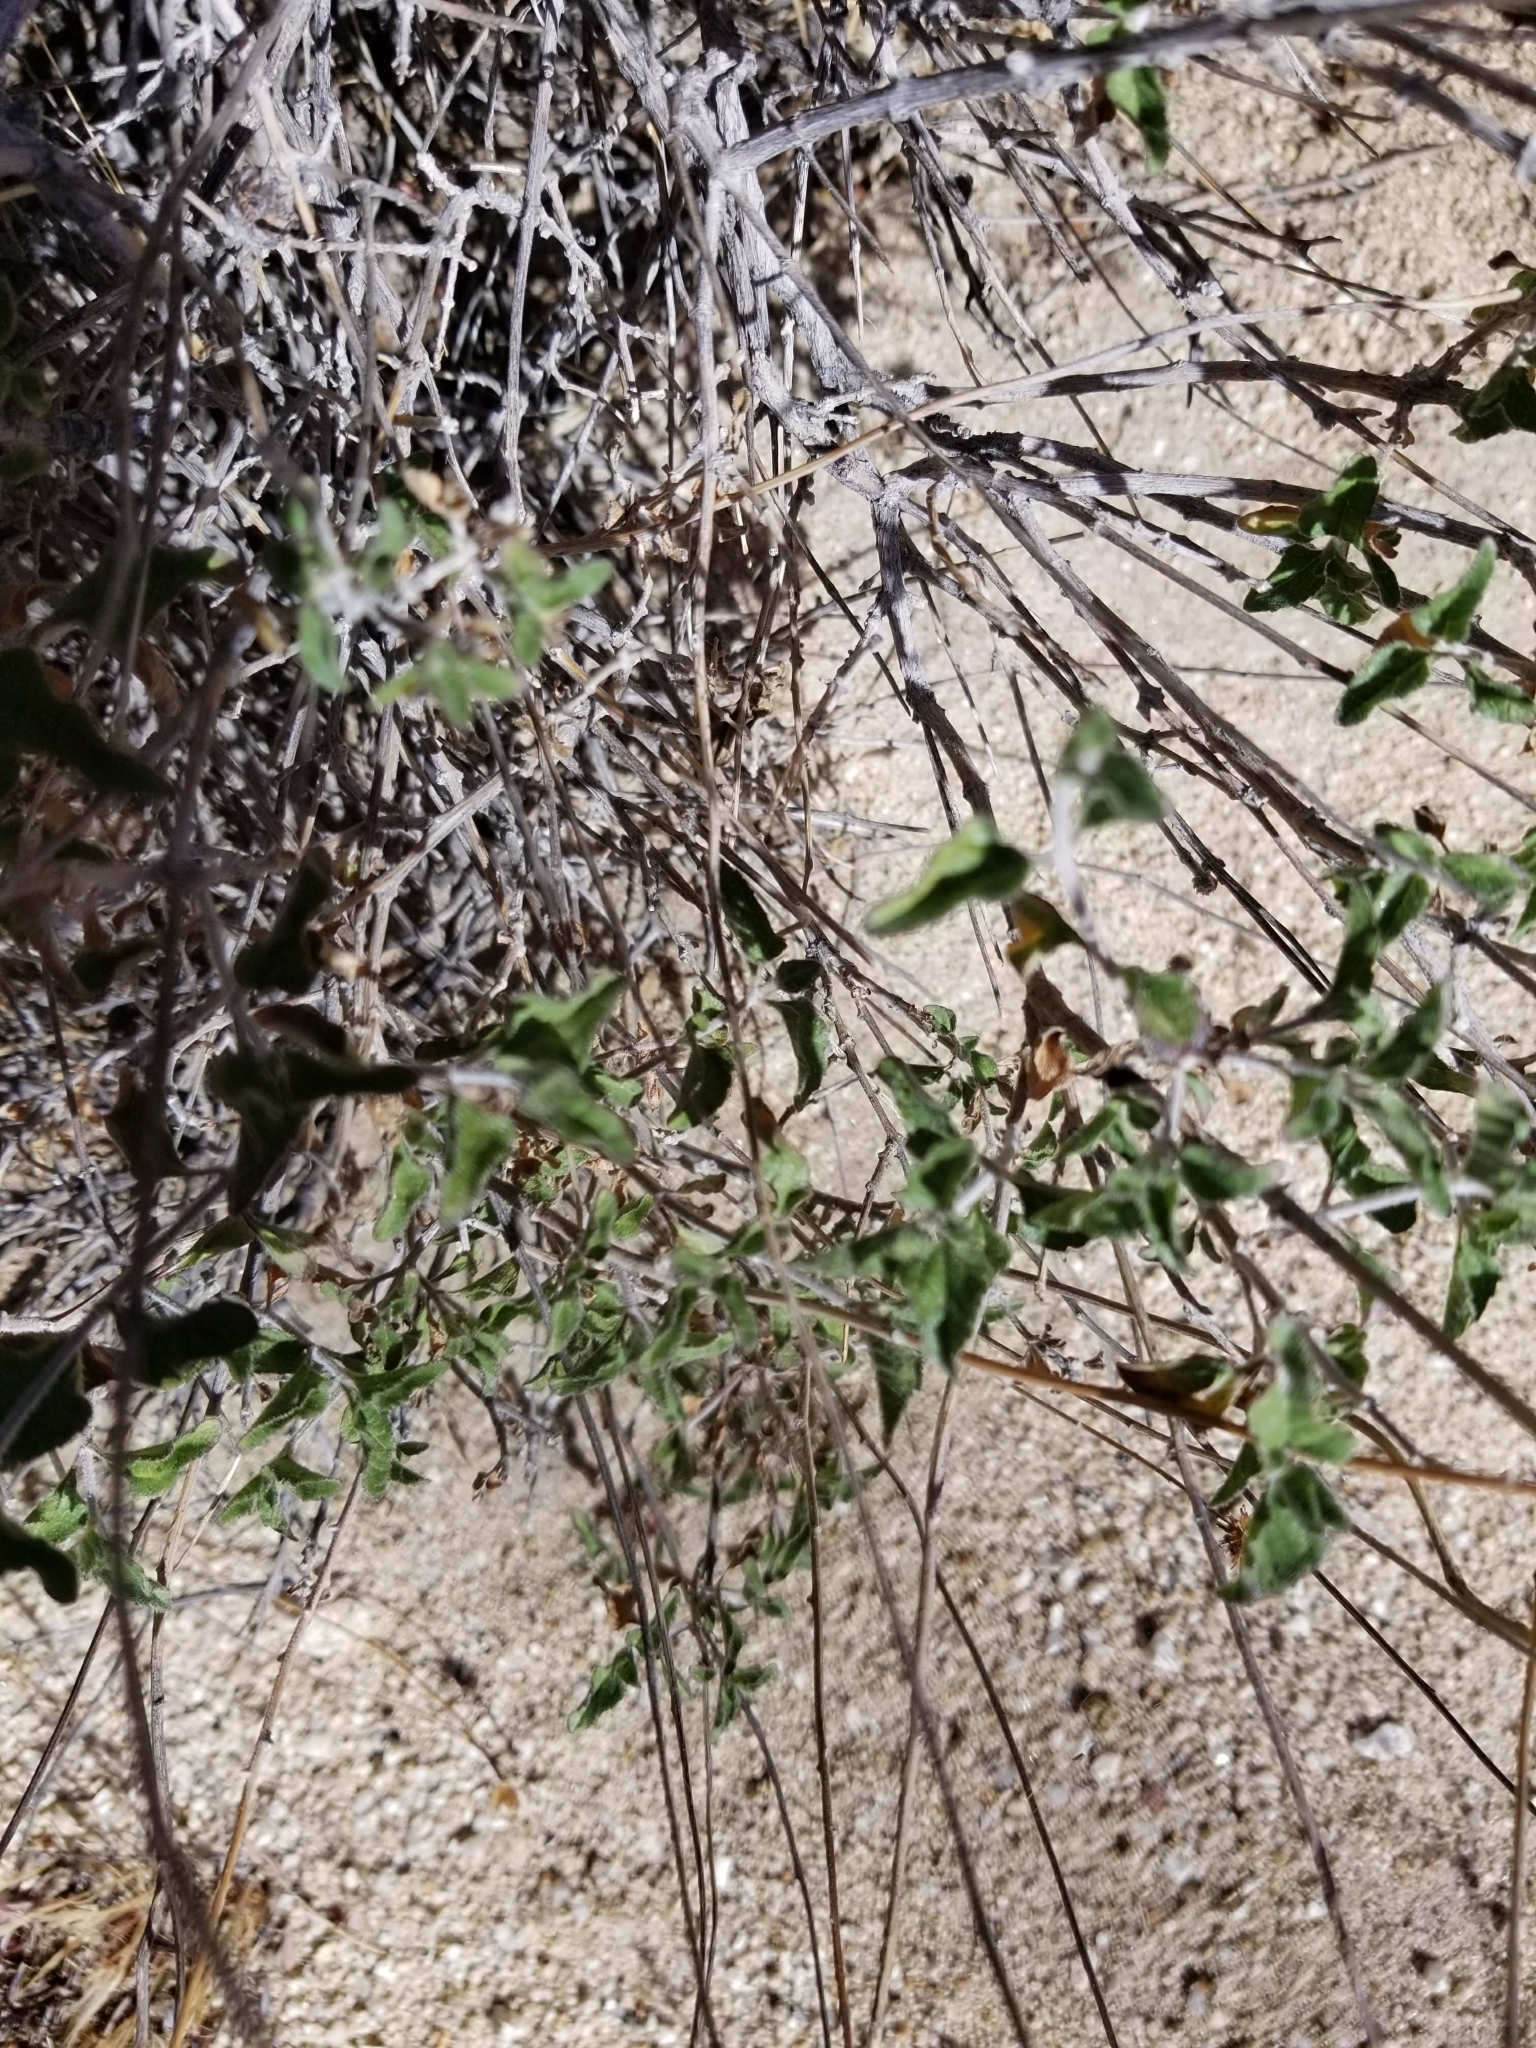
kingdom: Plantae
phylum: Tracheophyta
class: Magnoliopsida
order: Asterales
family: Asteraceae
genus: Bahiopsis
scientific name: Bahiopsis parishii
